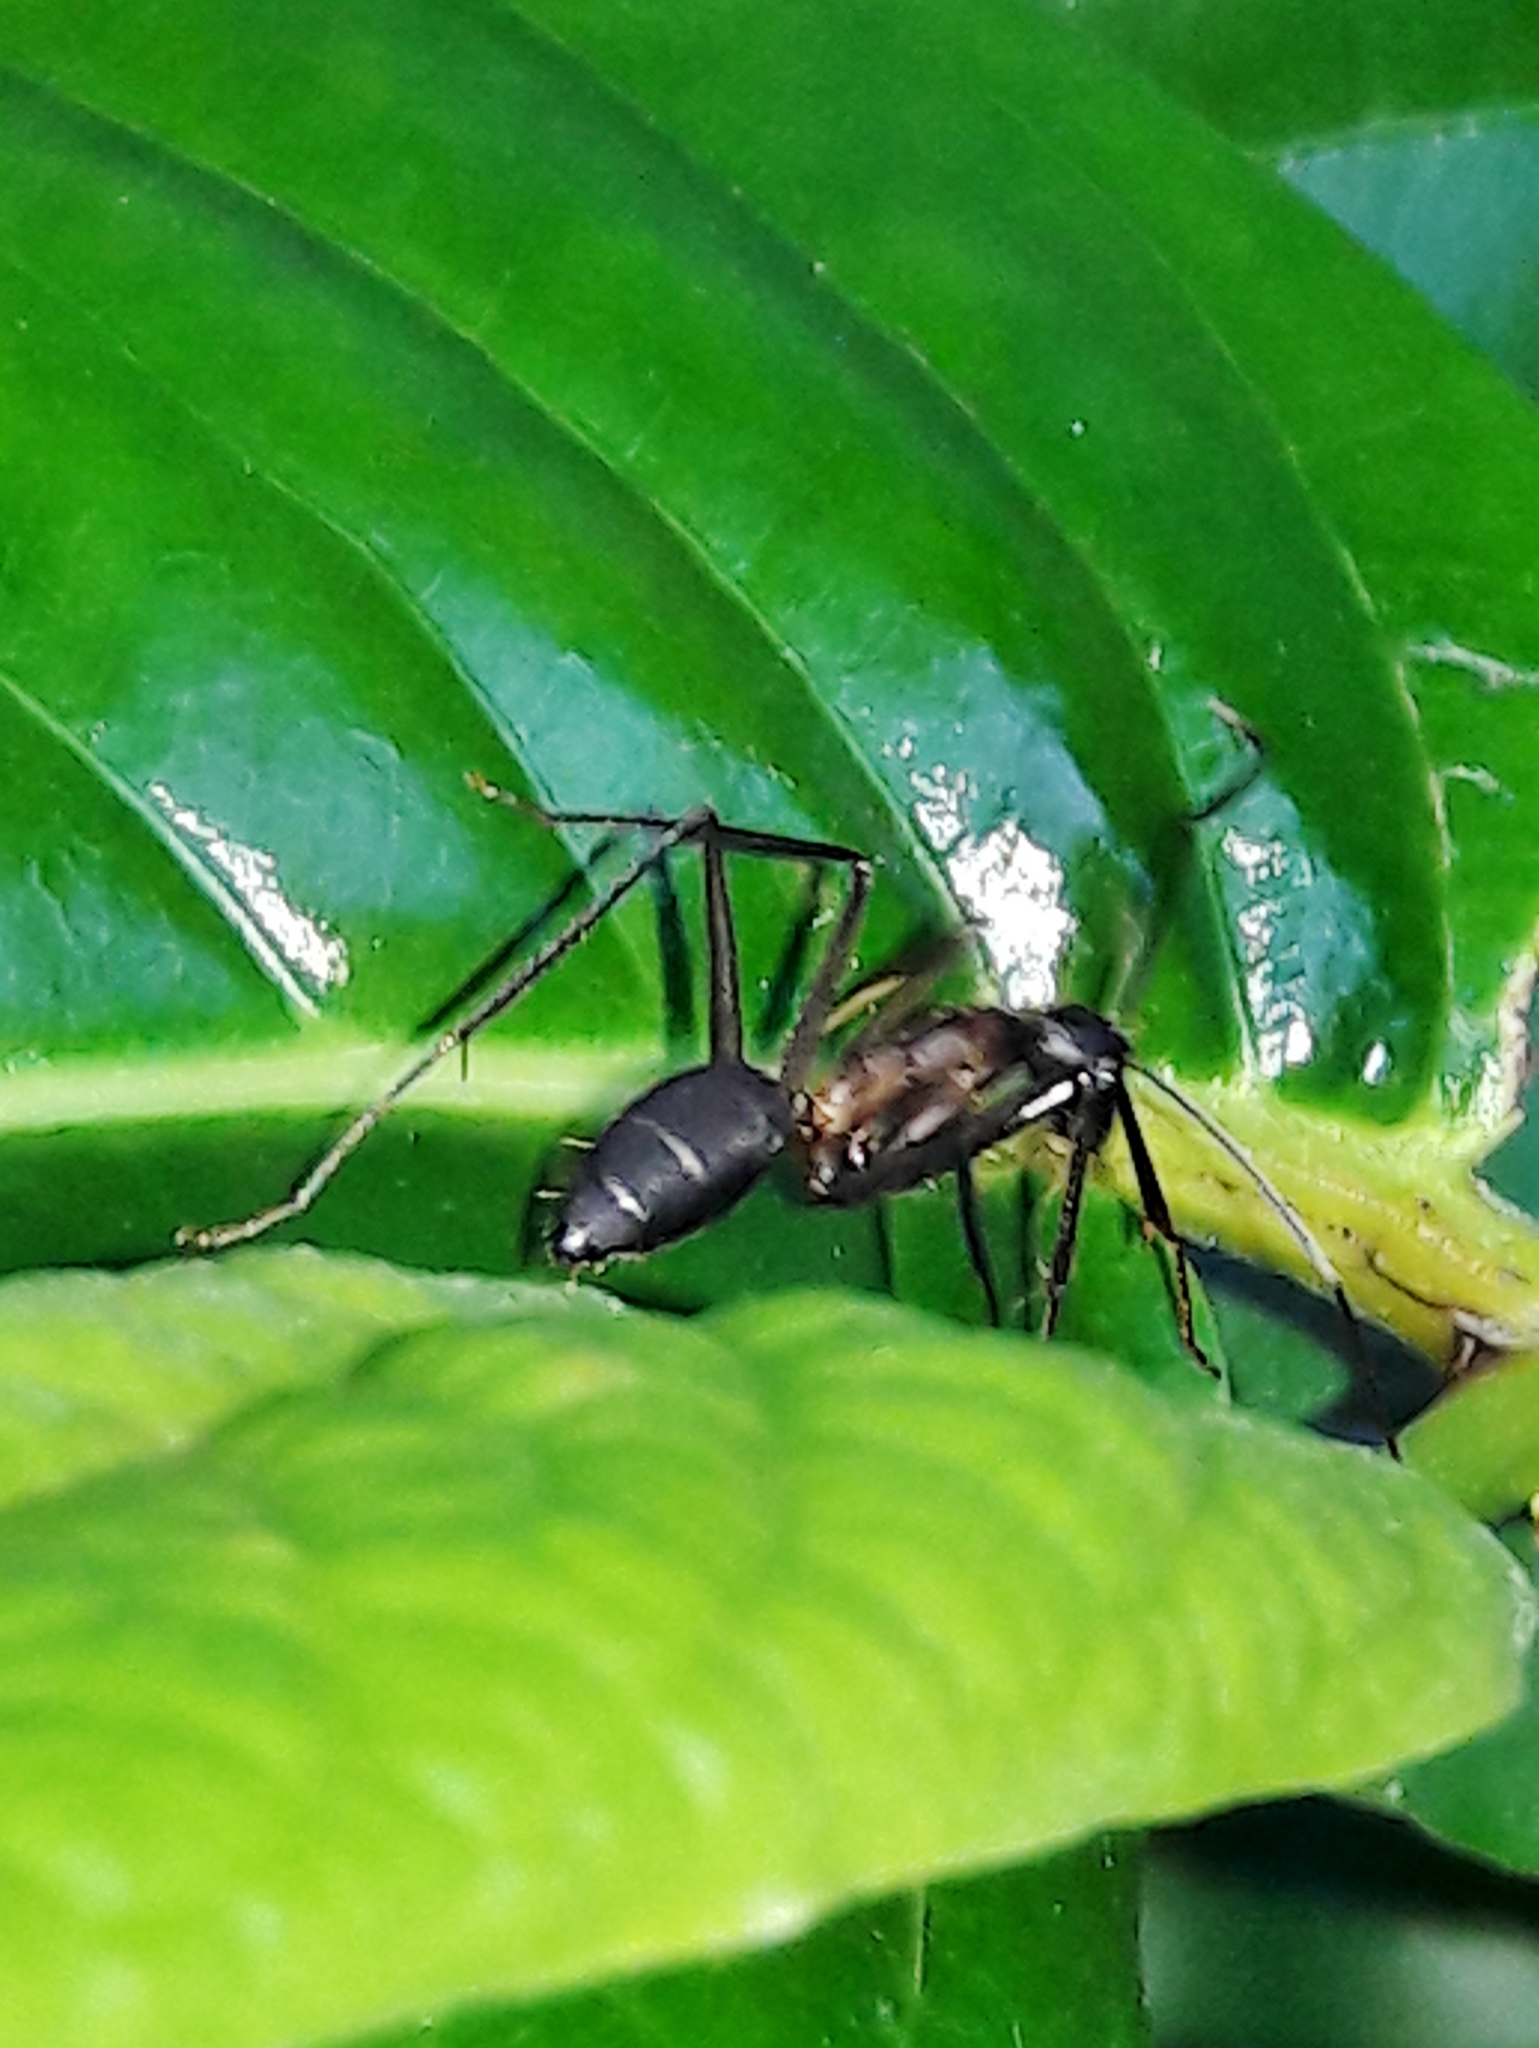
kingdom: Animalia
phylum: Arthropoda
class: Insecta
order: Hymenoptera
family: Formicidae
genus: Camponotus
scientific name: Camponotus lespesii
